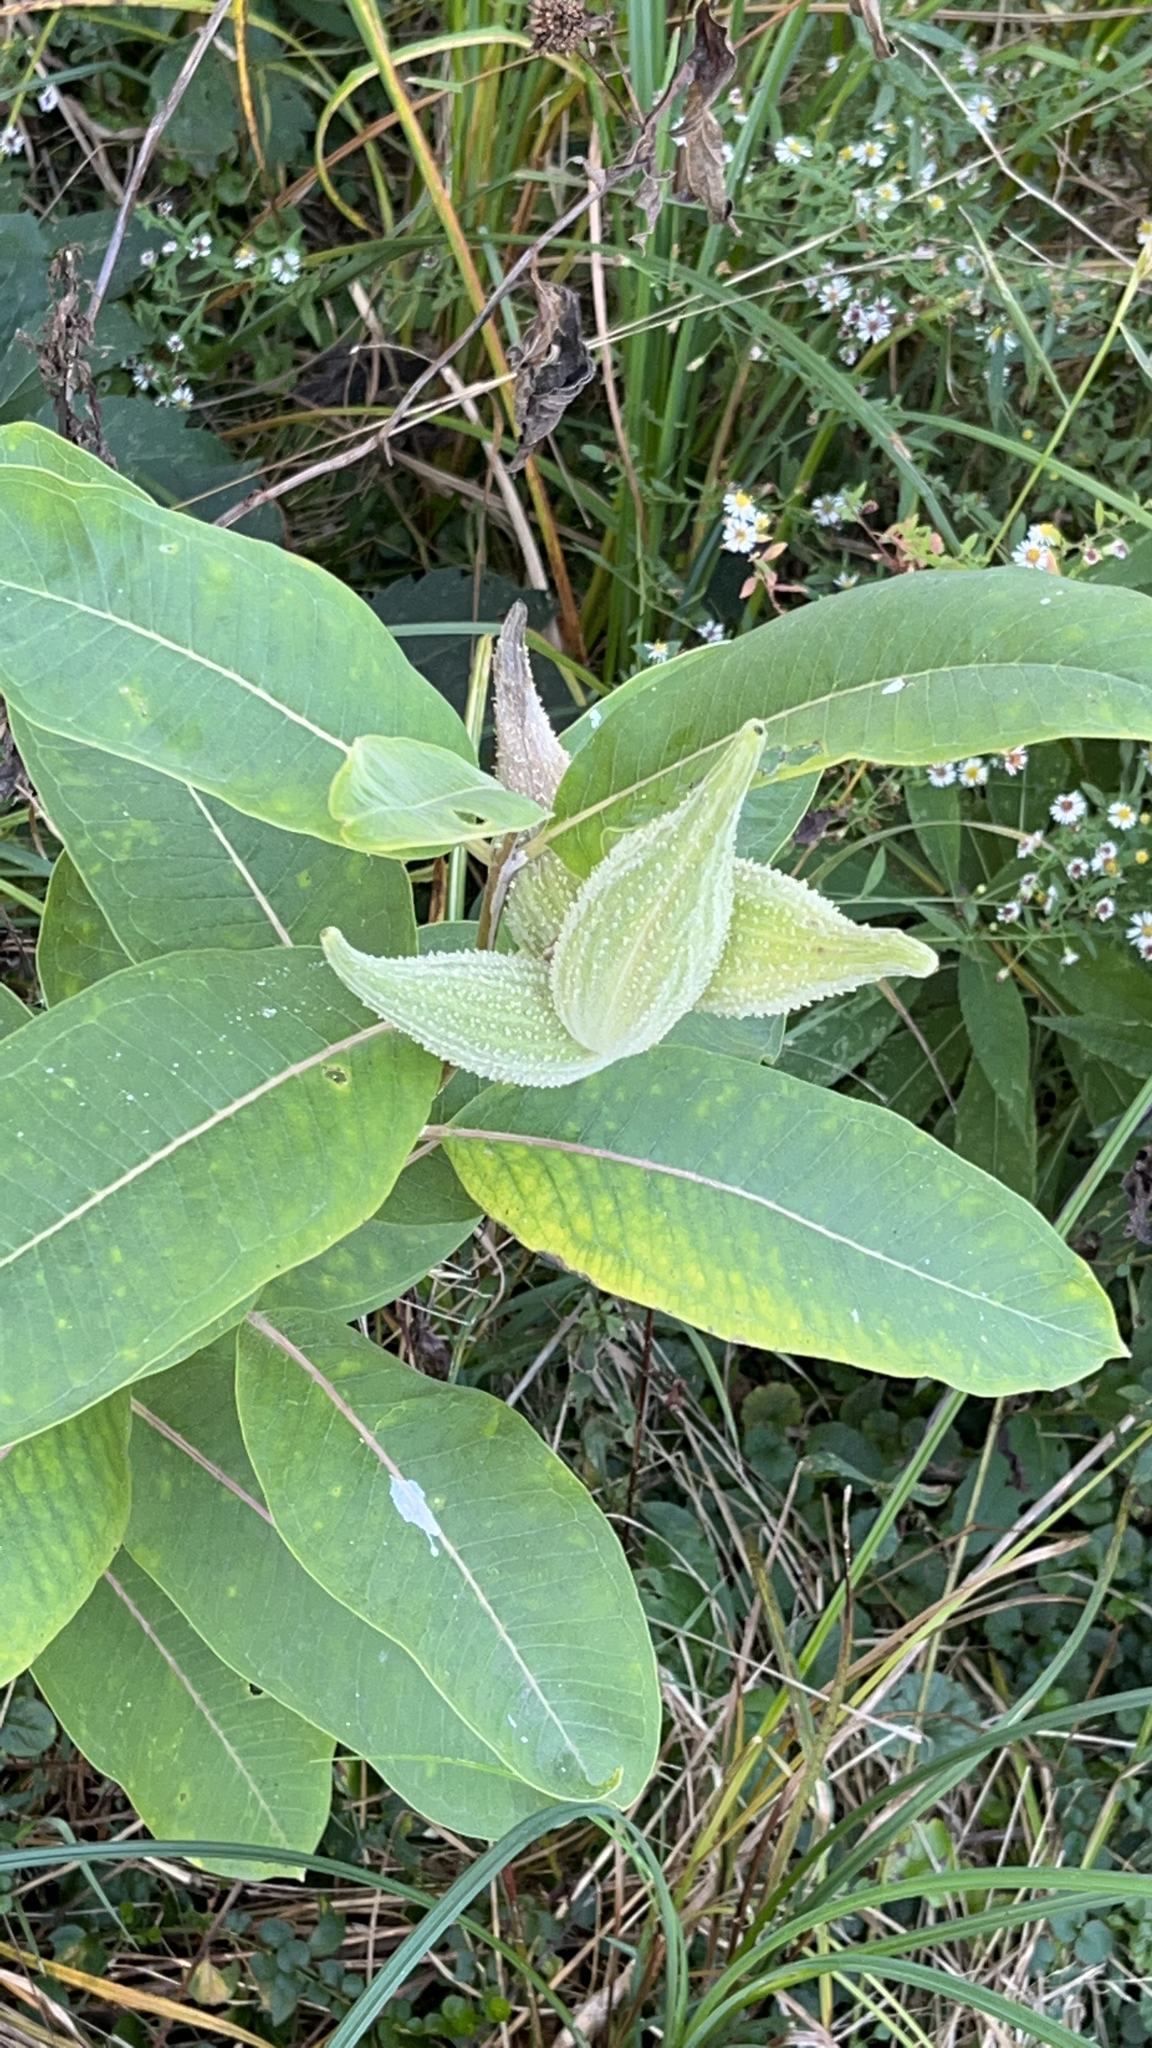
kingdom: Plantae
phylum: Tracheophyta
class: Magnoliopsida
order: Gentianales
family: Apocynaceae
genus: Asclepias
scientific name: Asclepias syriaca
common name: Common milkweed
